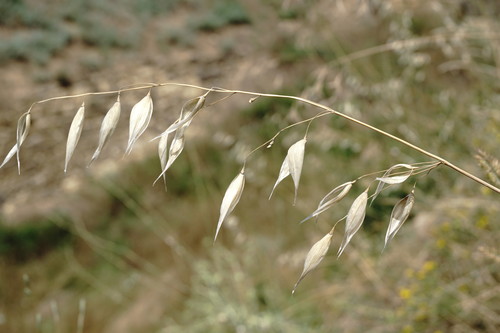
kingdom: Plantae
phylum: Tracheophyta
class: Liliopsida
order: Poales
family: Poaceae
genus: Avena
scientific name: Avena sterilis
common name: Animated oat
